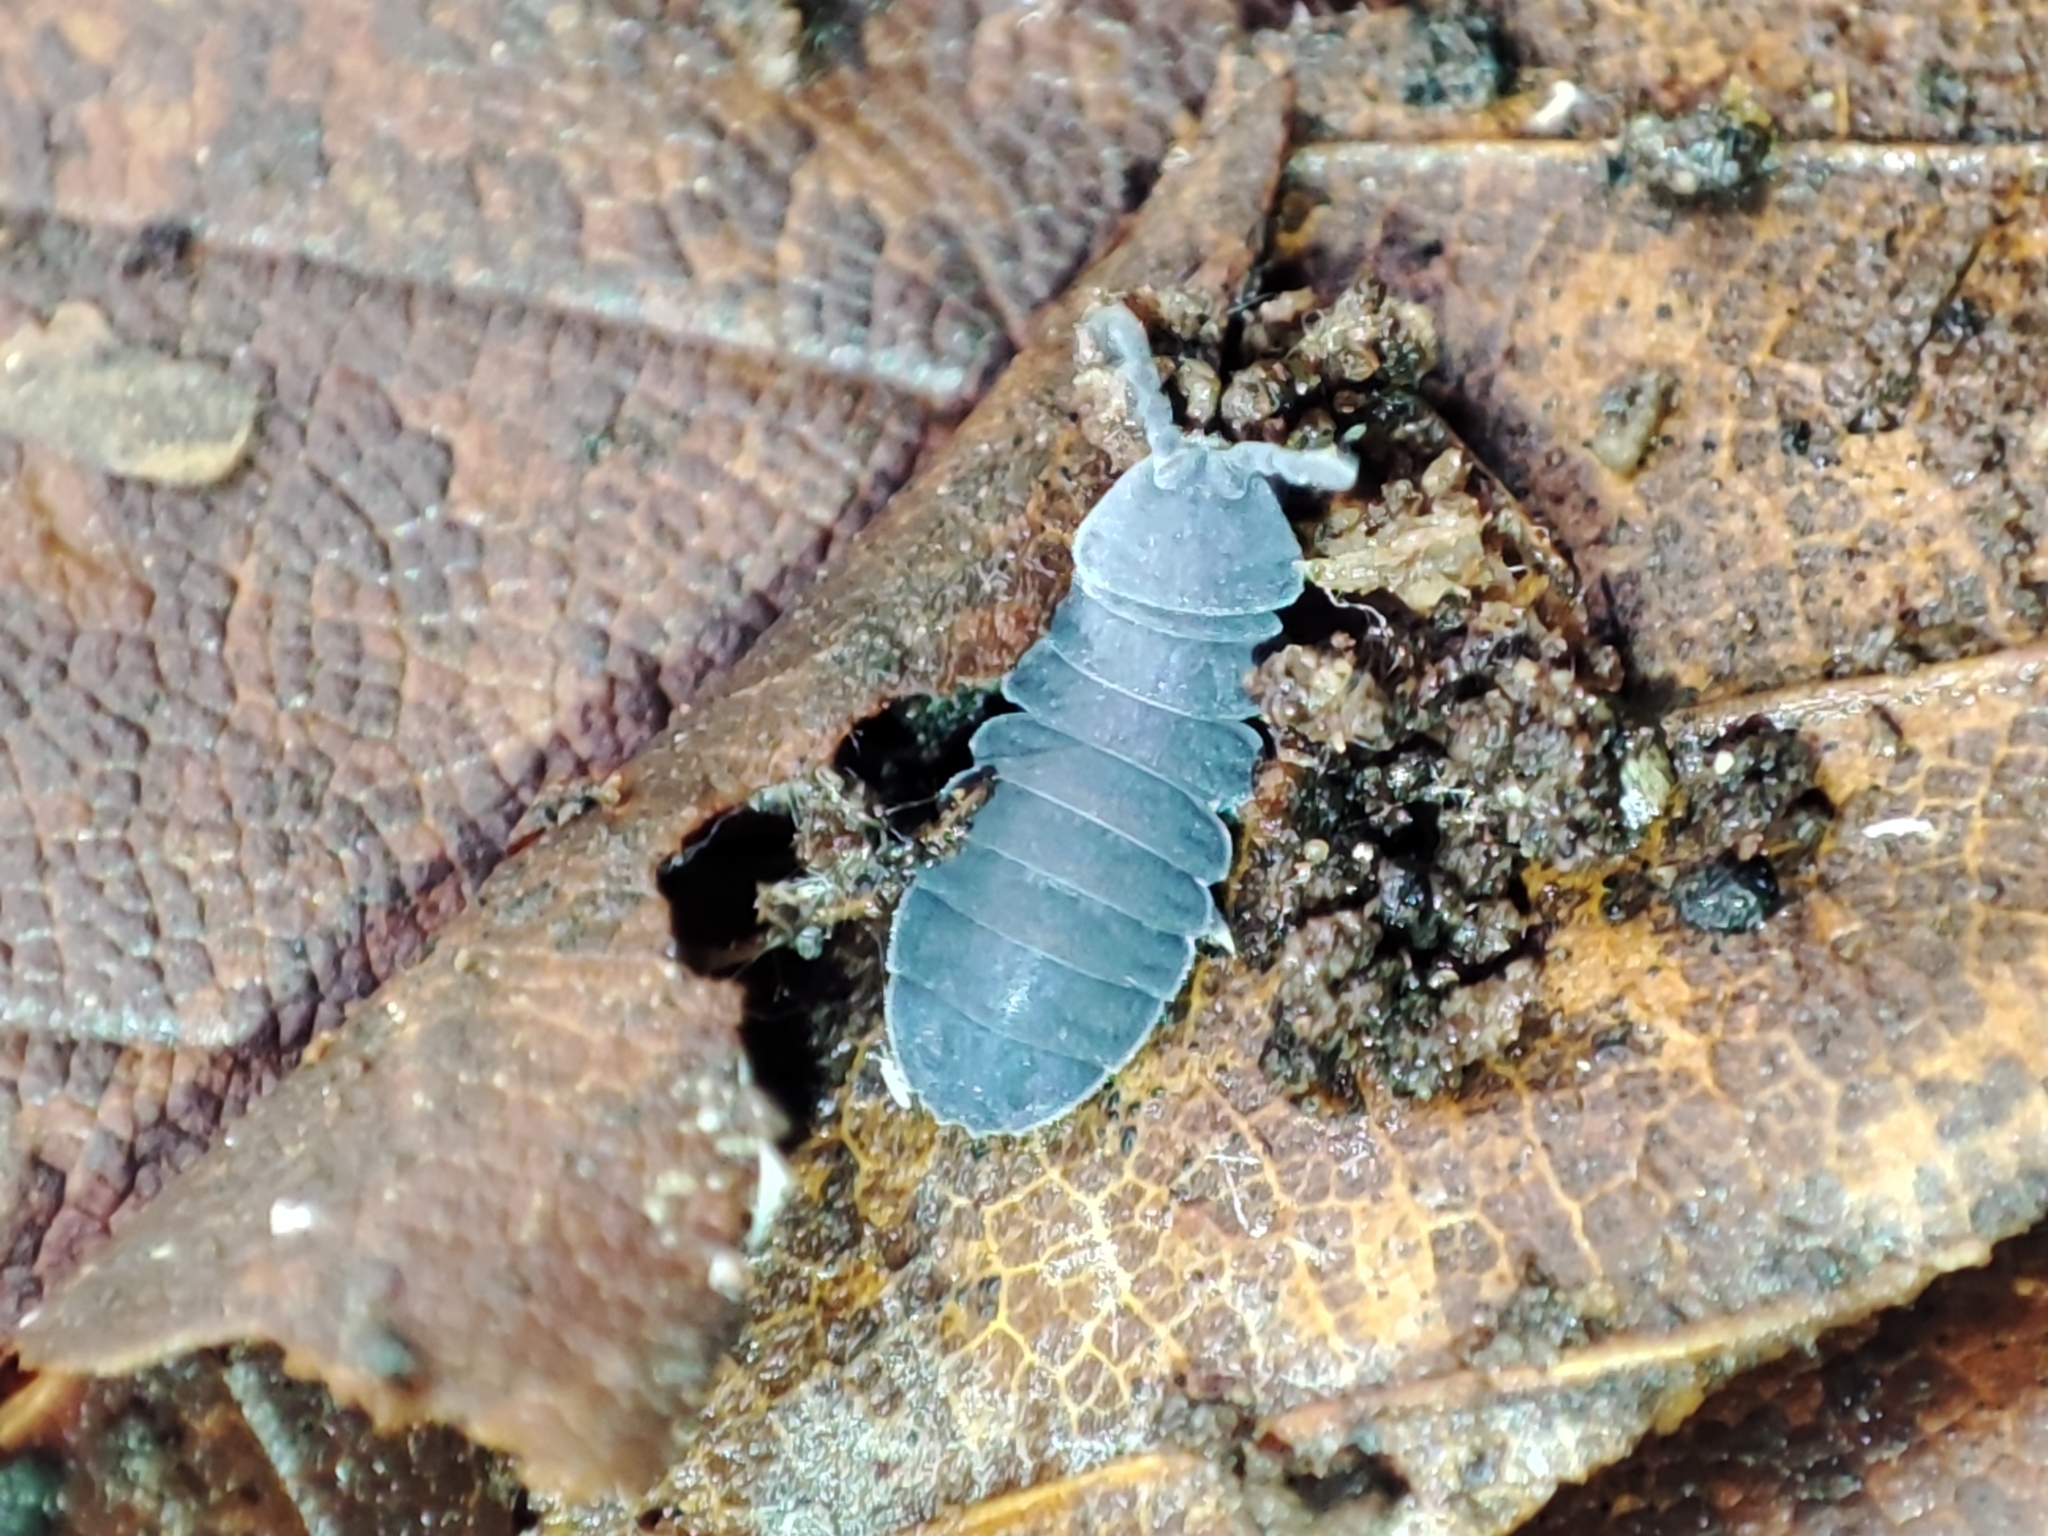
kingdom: Animalia
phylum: Arthropoda
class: Collembola
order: Poduromorpha
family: Onychiuridae
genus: Tetrodontophora
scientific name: Tetrodontophora bielanensis
